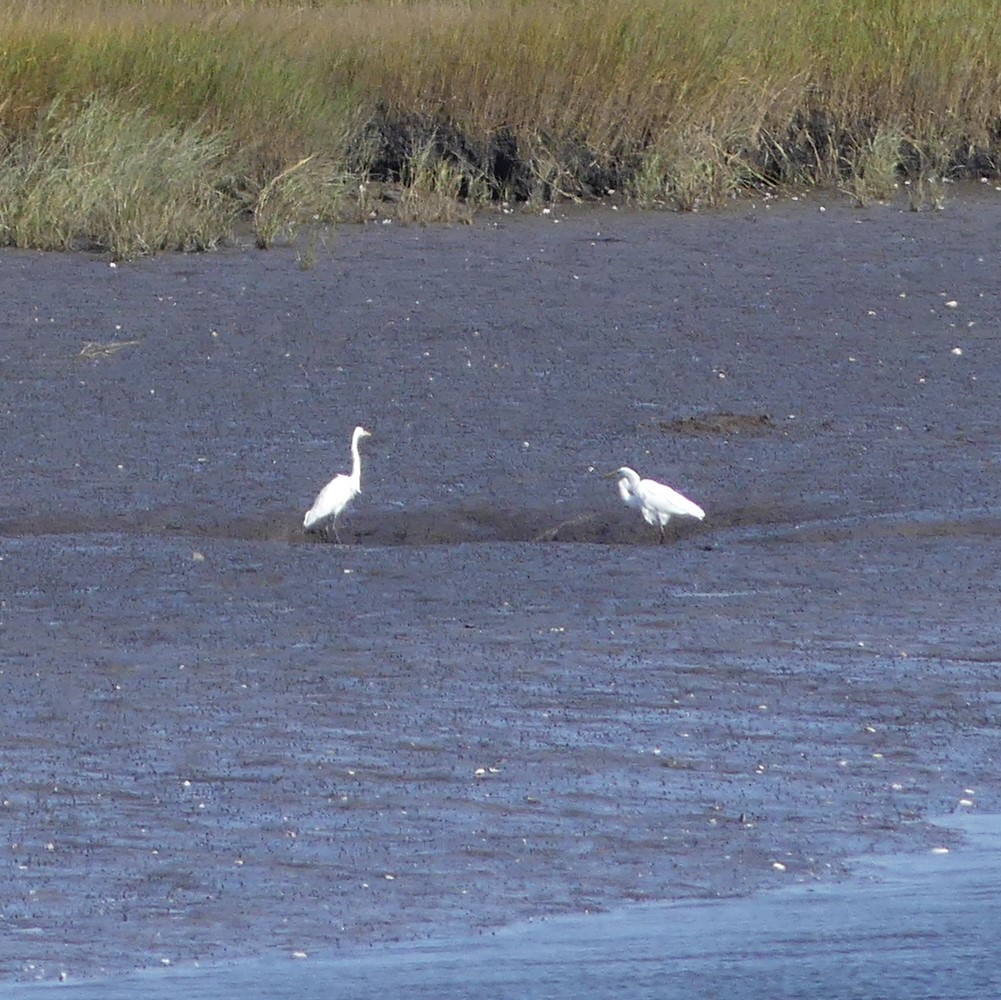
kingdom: Animalia
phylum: Chordata
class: Aves
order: Pelecaniformes
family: Ardeidae
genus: Ardea
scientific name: Ardea alba
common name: Great egret
